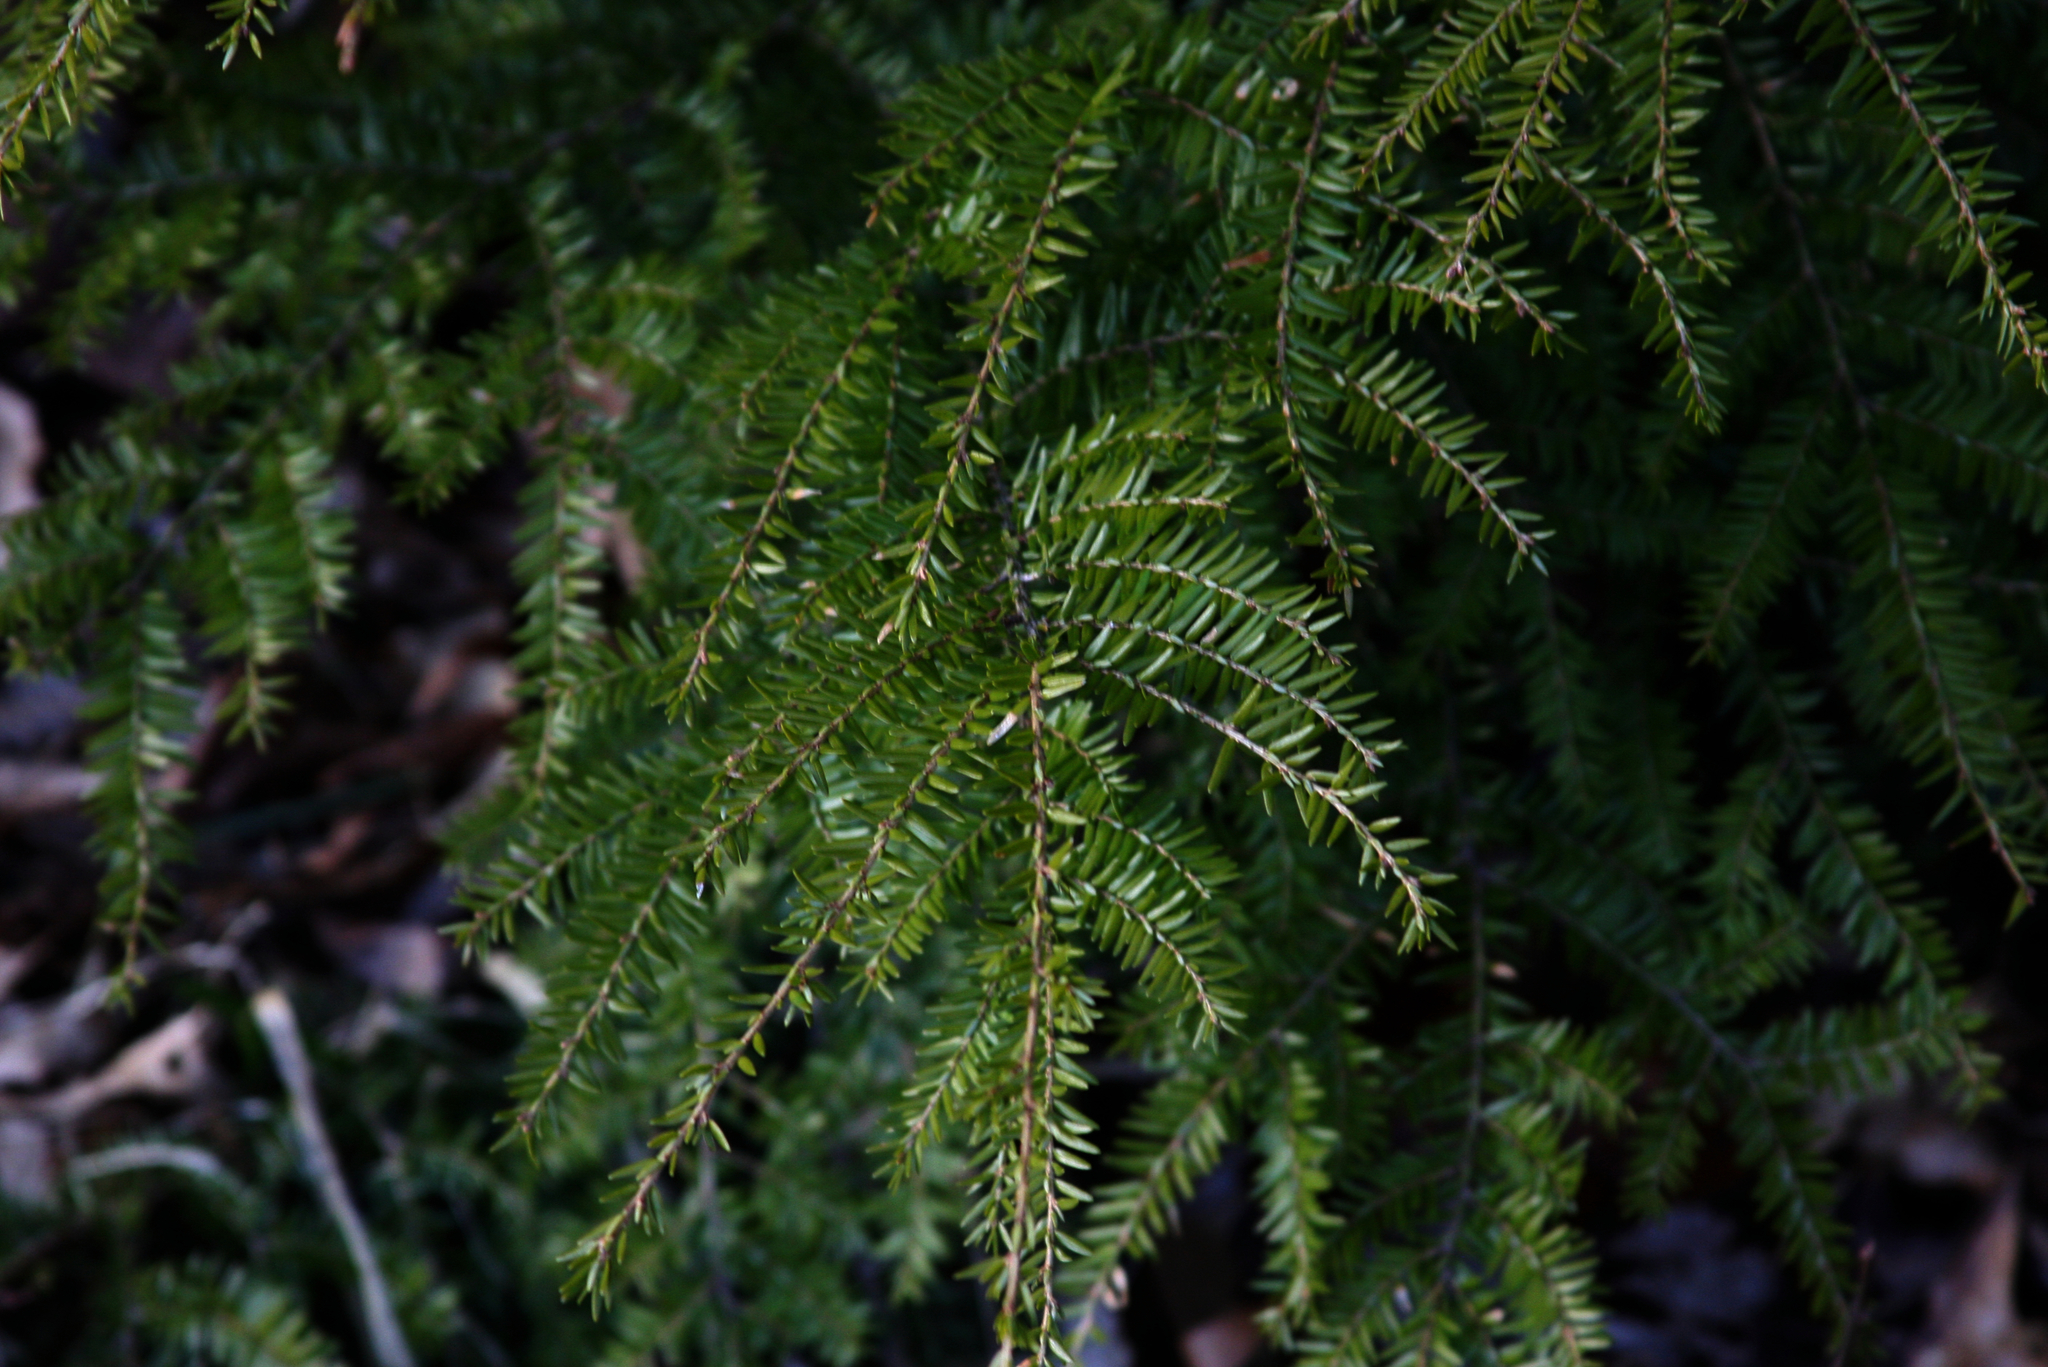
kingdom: Plantae
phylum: Tracheophyta
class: Pinopsida
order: Pinales
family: Pinaceae
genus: Tsuga
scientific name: Tsuga canadensis
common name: Eastern hemlock
